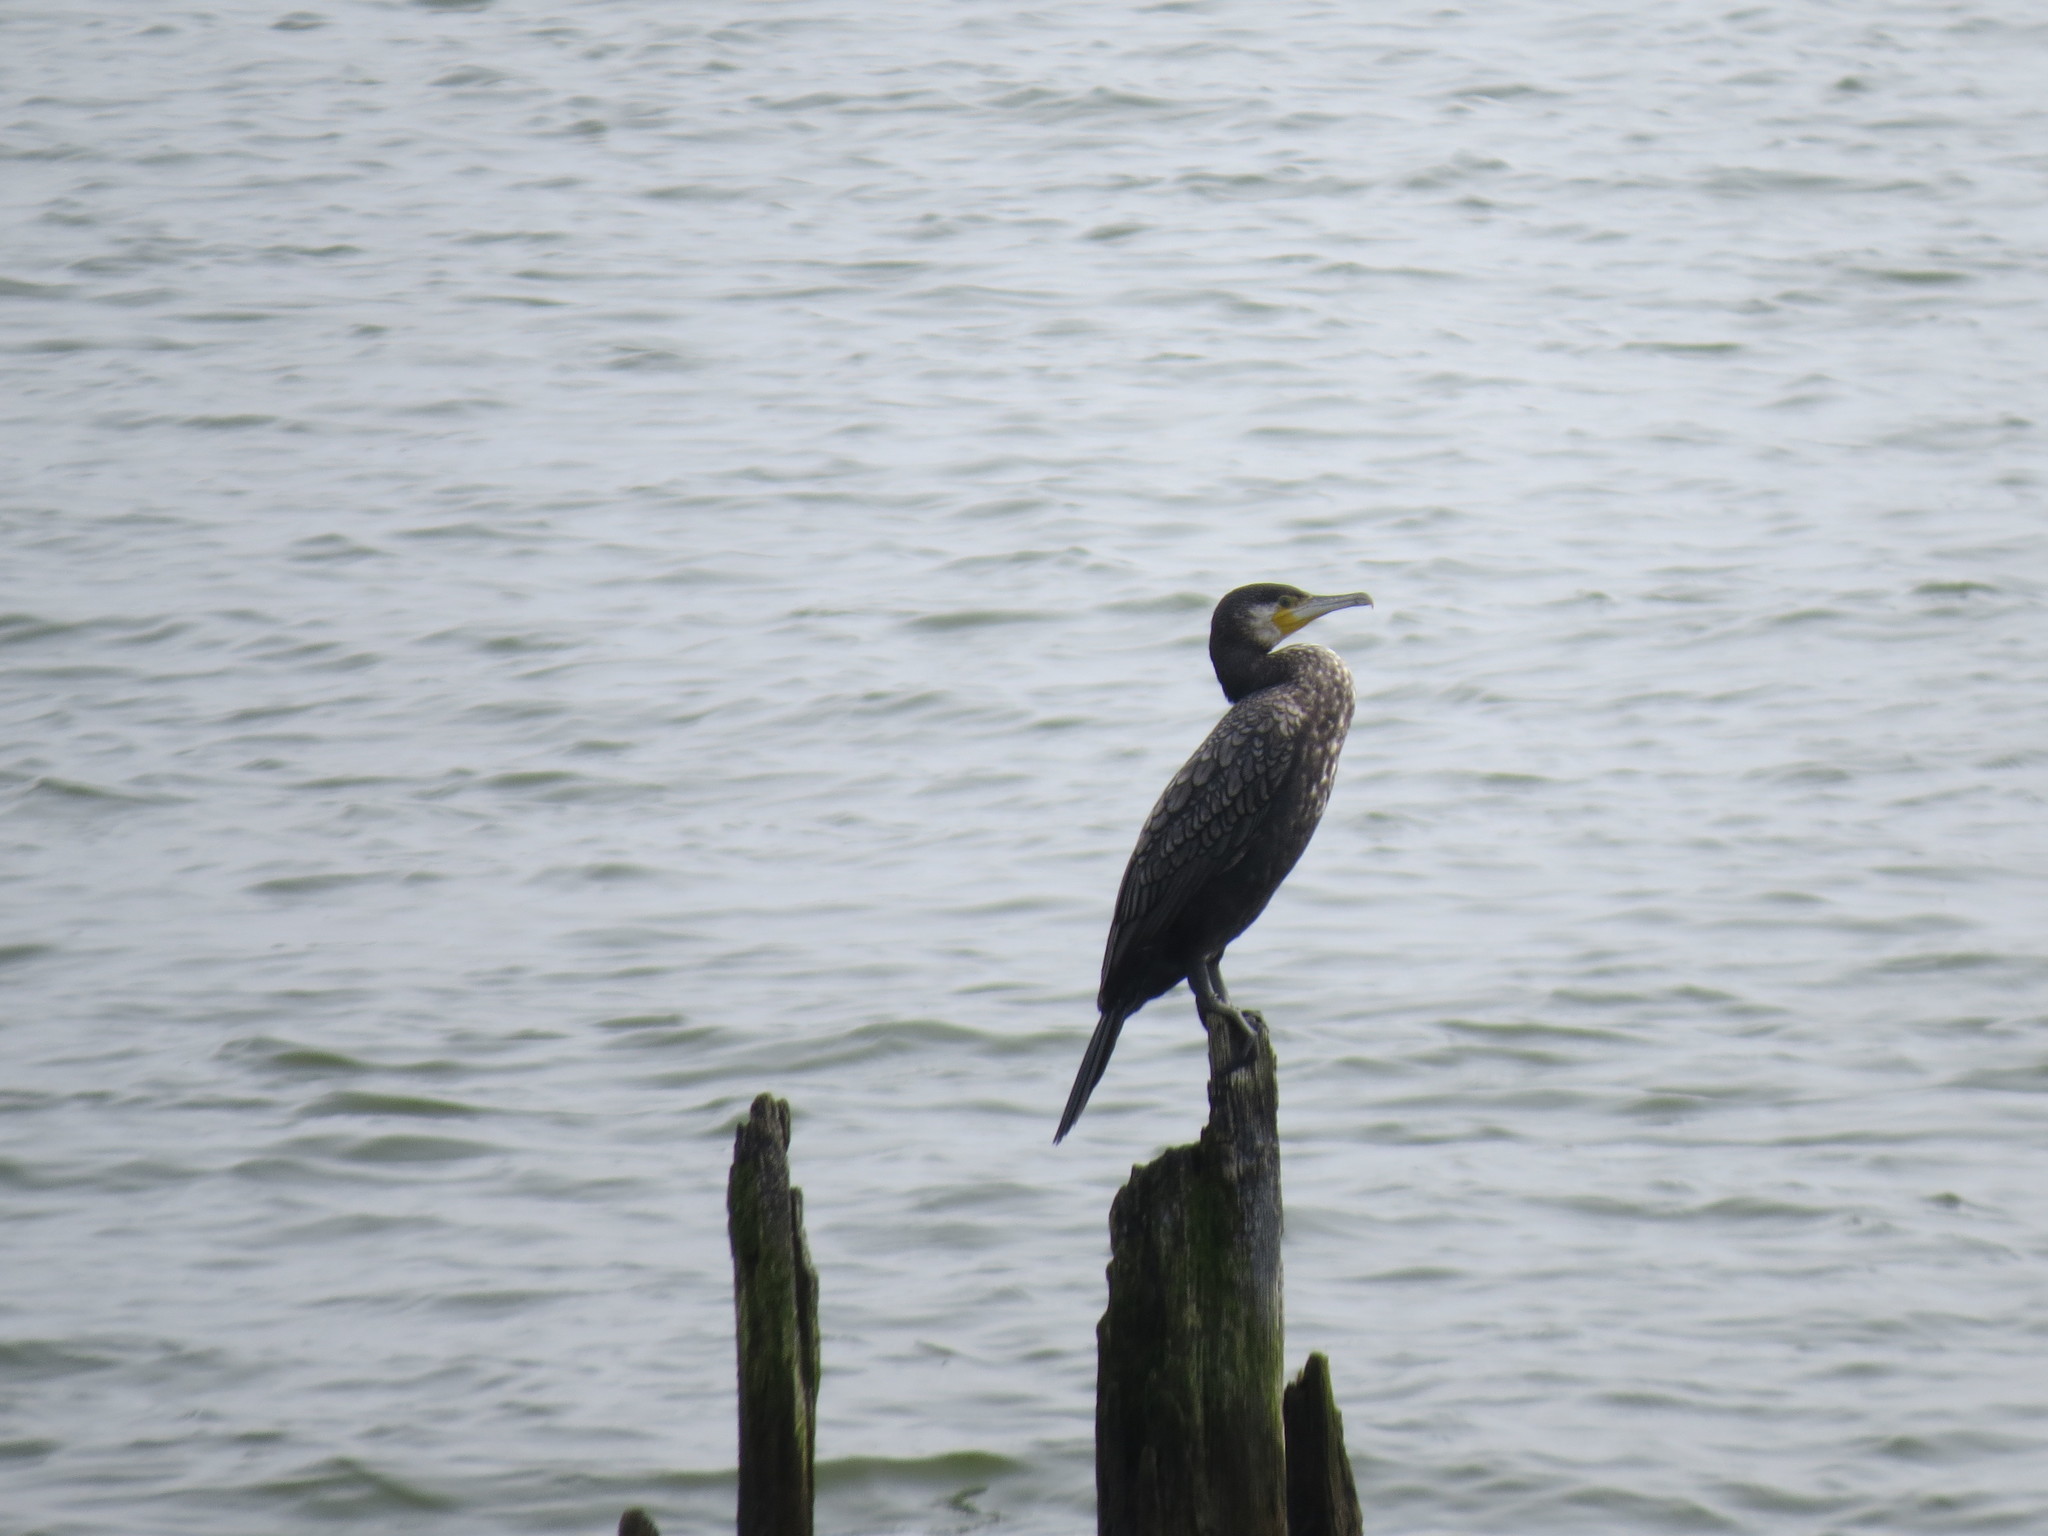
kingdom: Animalia
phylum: Chordata
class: Aves
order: Suliformes
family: Phalacrocoracidae
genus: Phalacrocorax
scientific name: Phalacrocorax carbo
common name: Great cormorant
